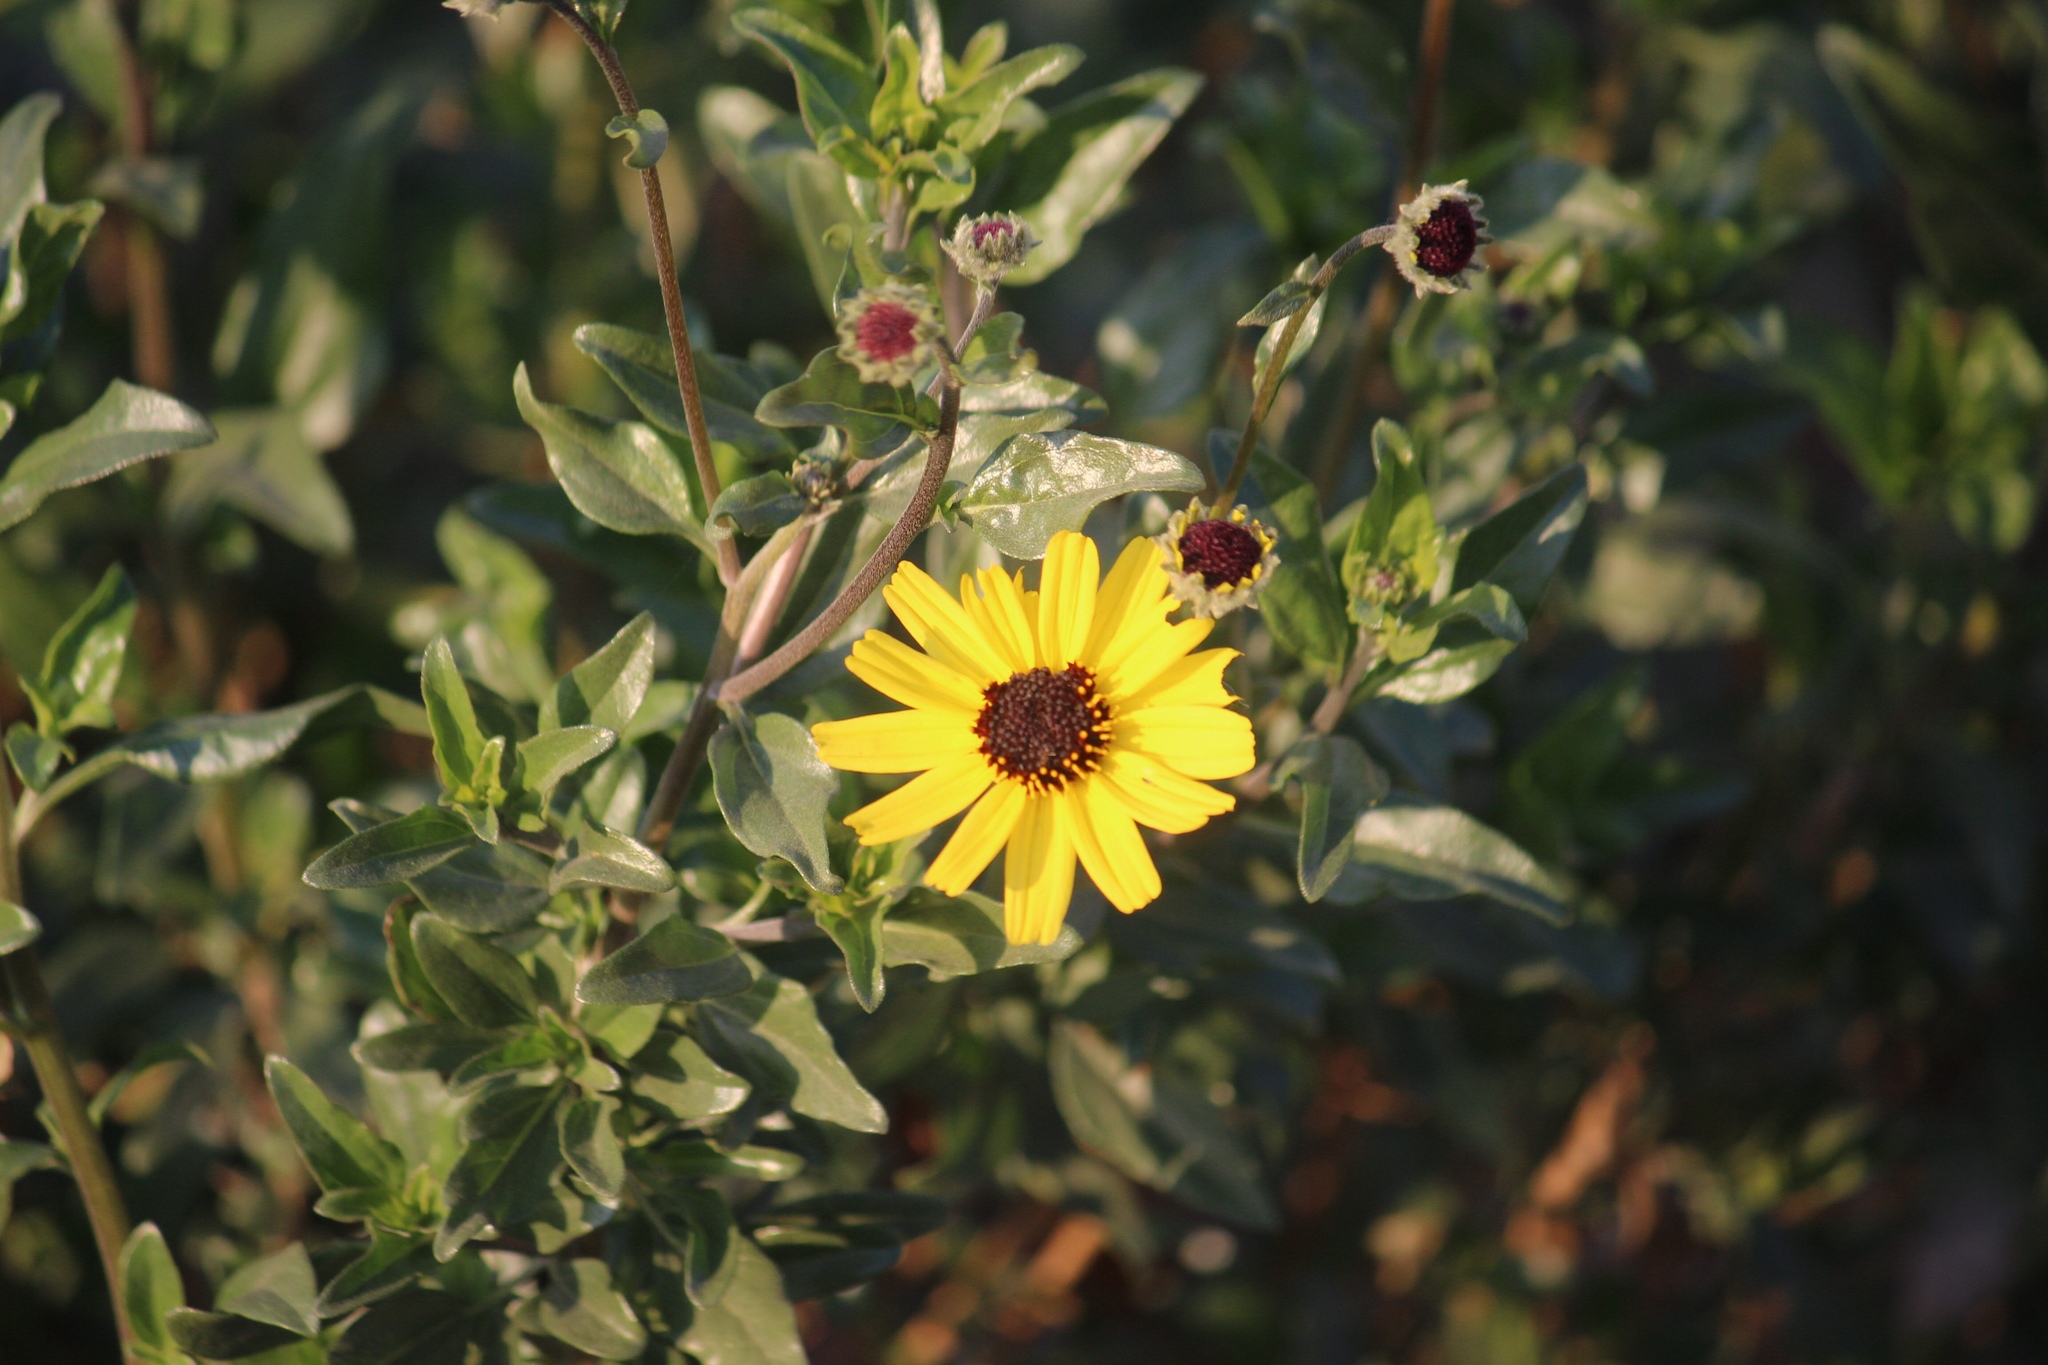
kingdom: Plantae
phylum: Tracheophyta
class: Magnoliopsida
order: Asterales
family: Asteraceae
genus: Encelia
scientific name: Encelia californica
